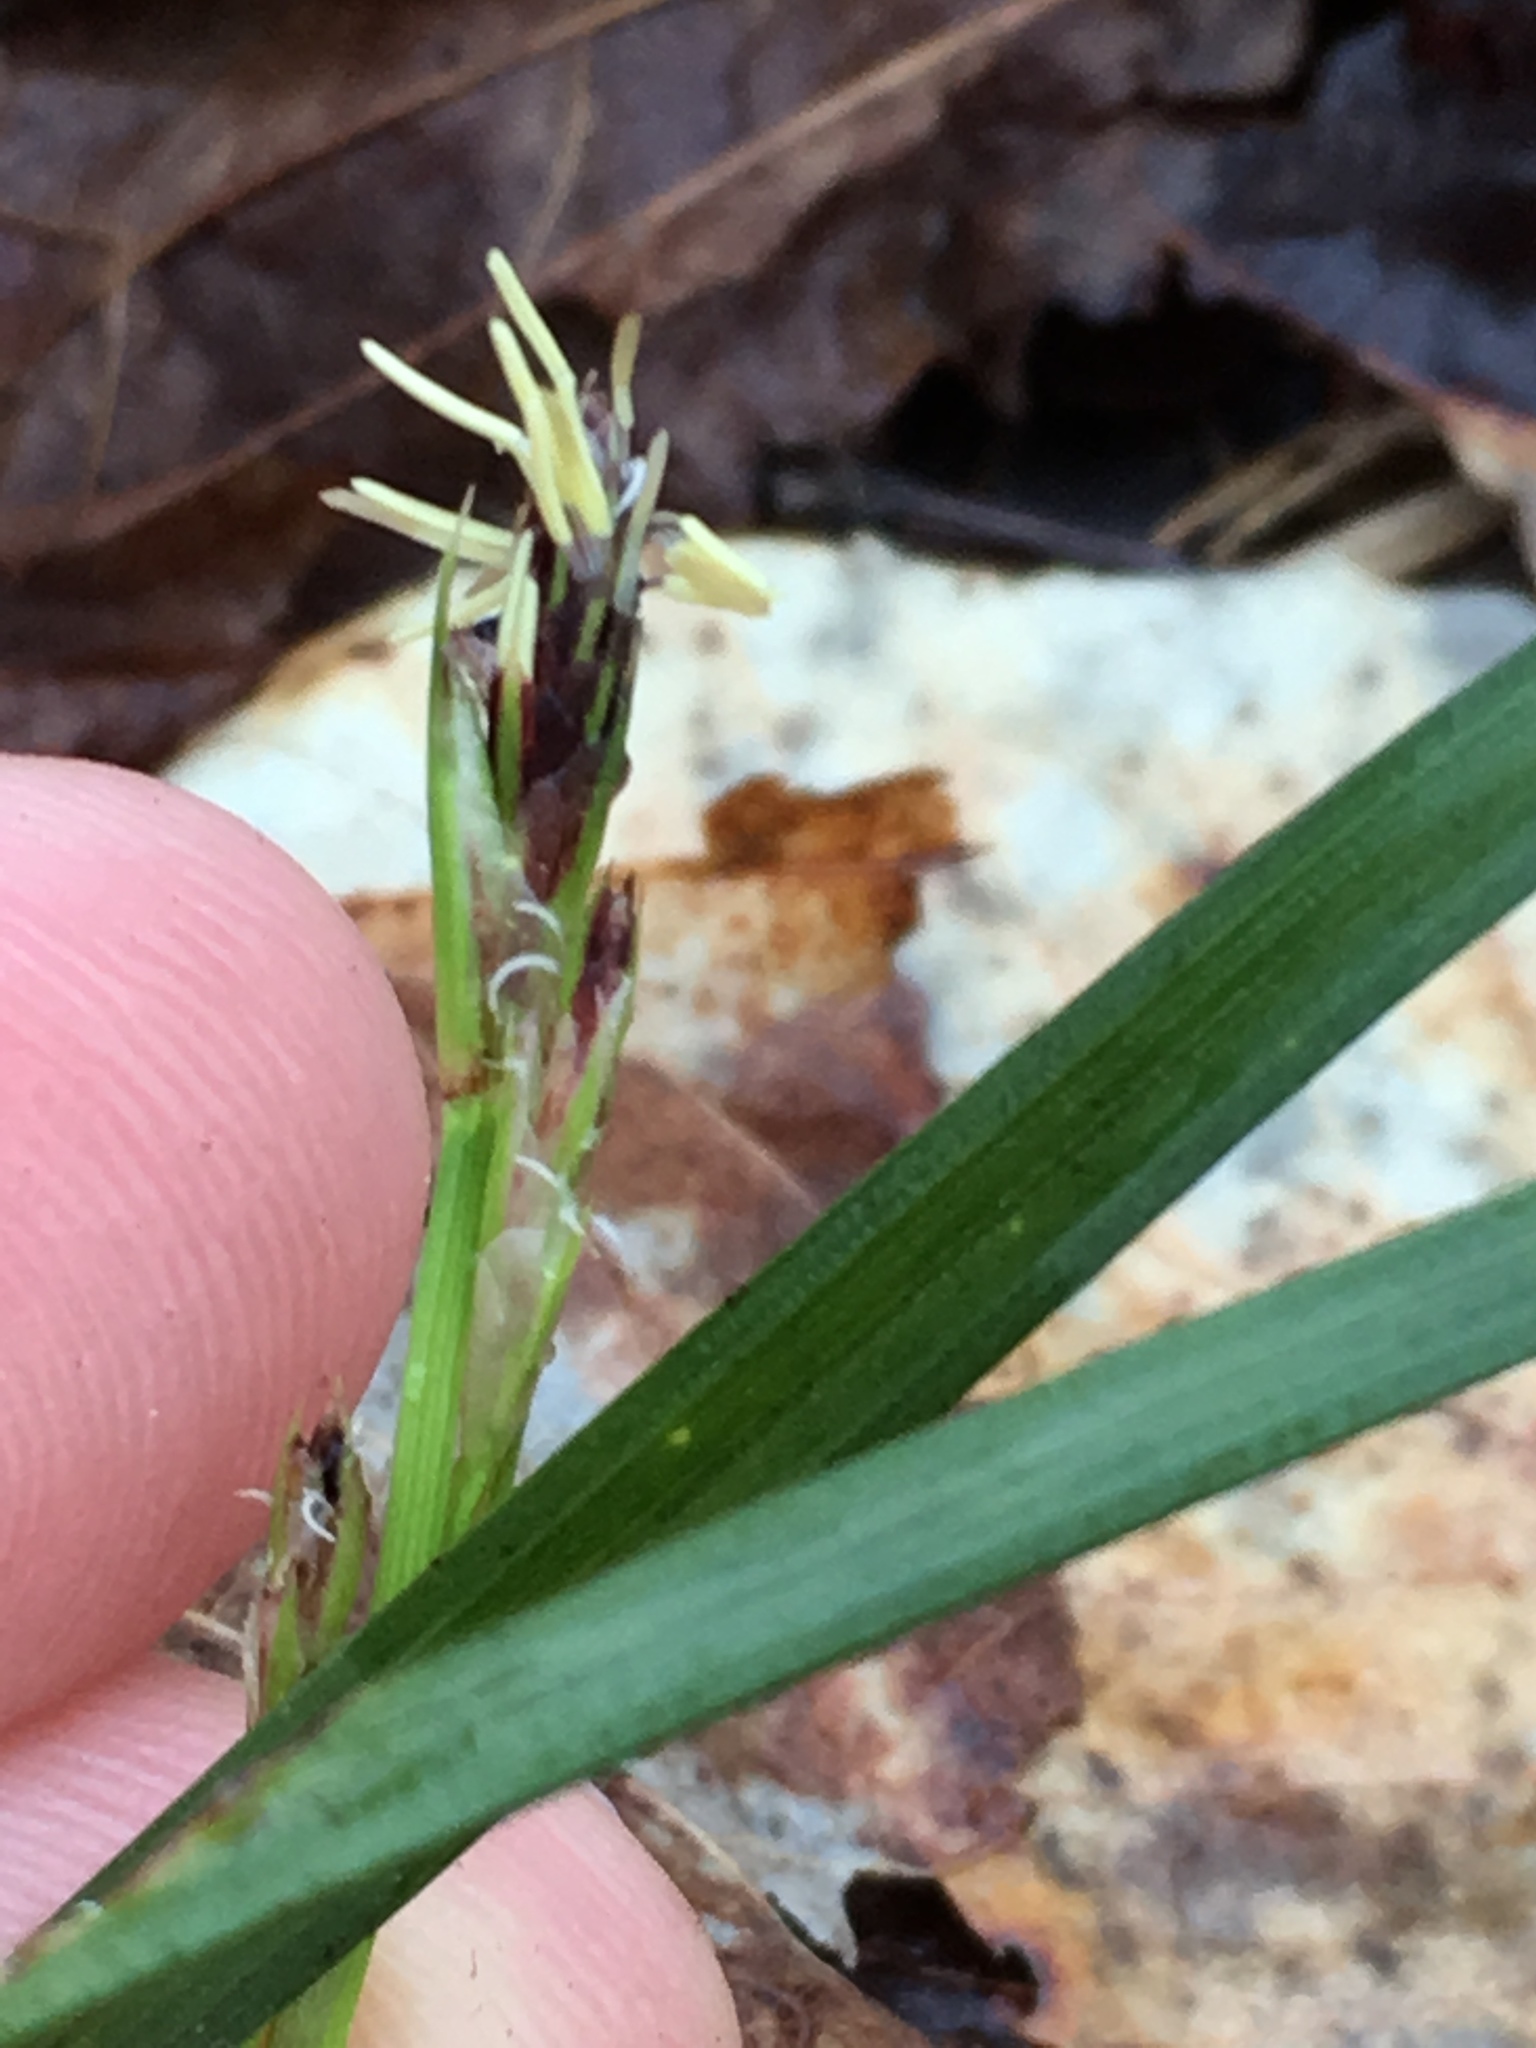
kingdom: Plantae
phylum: Tracheophyta
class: Liliopsida
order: Poales
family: Cyperaceae
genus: Carex
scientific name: Carex pedunculata
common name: Pedunculate sedge
